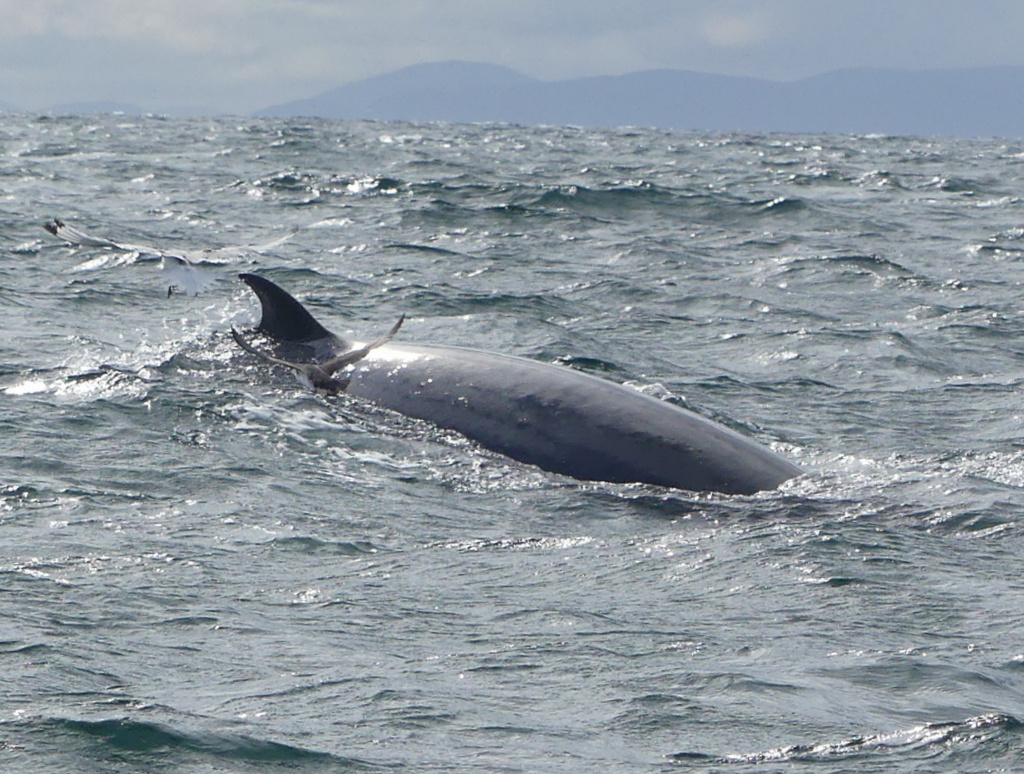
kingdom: Animalia
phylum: Chordata
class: Mammalia
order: Cetacea
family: Balaenopteridae
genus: Balaenoptera
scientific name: Balaenoptera acutorostrata
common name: Common minke whale
